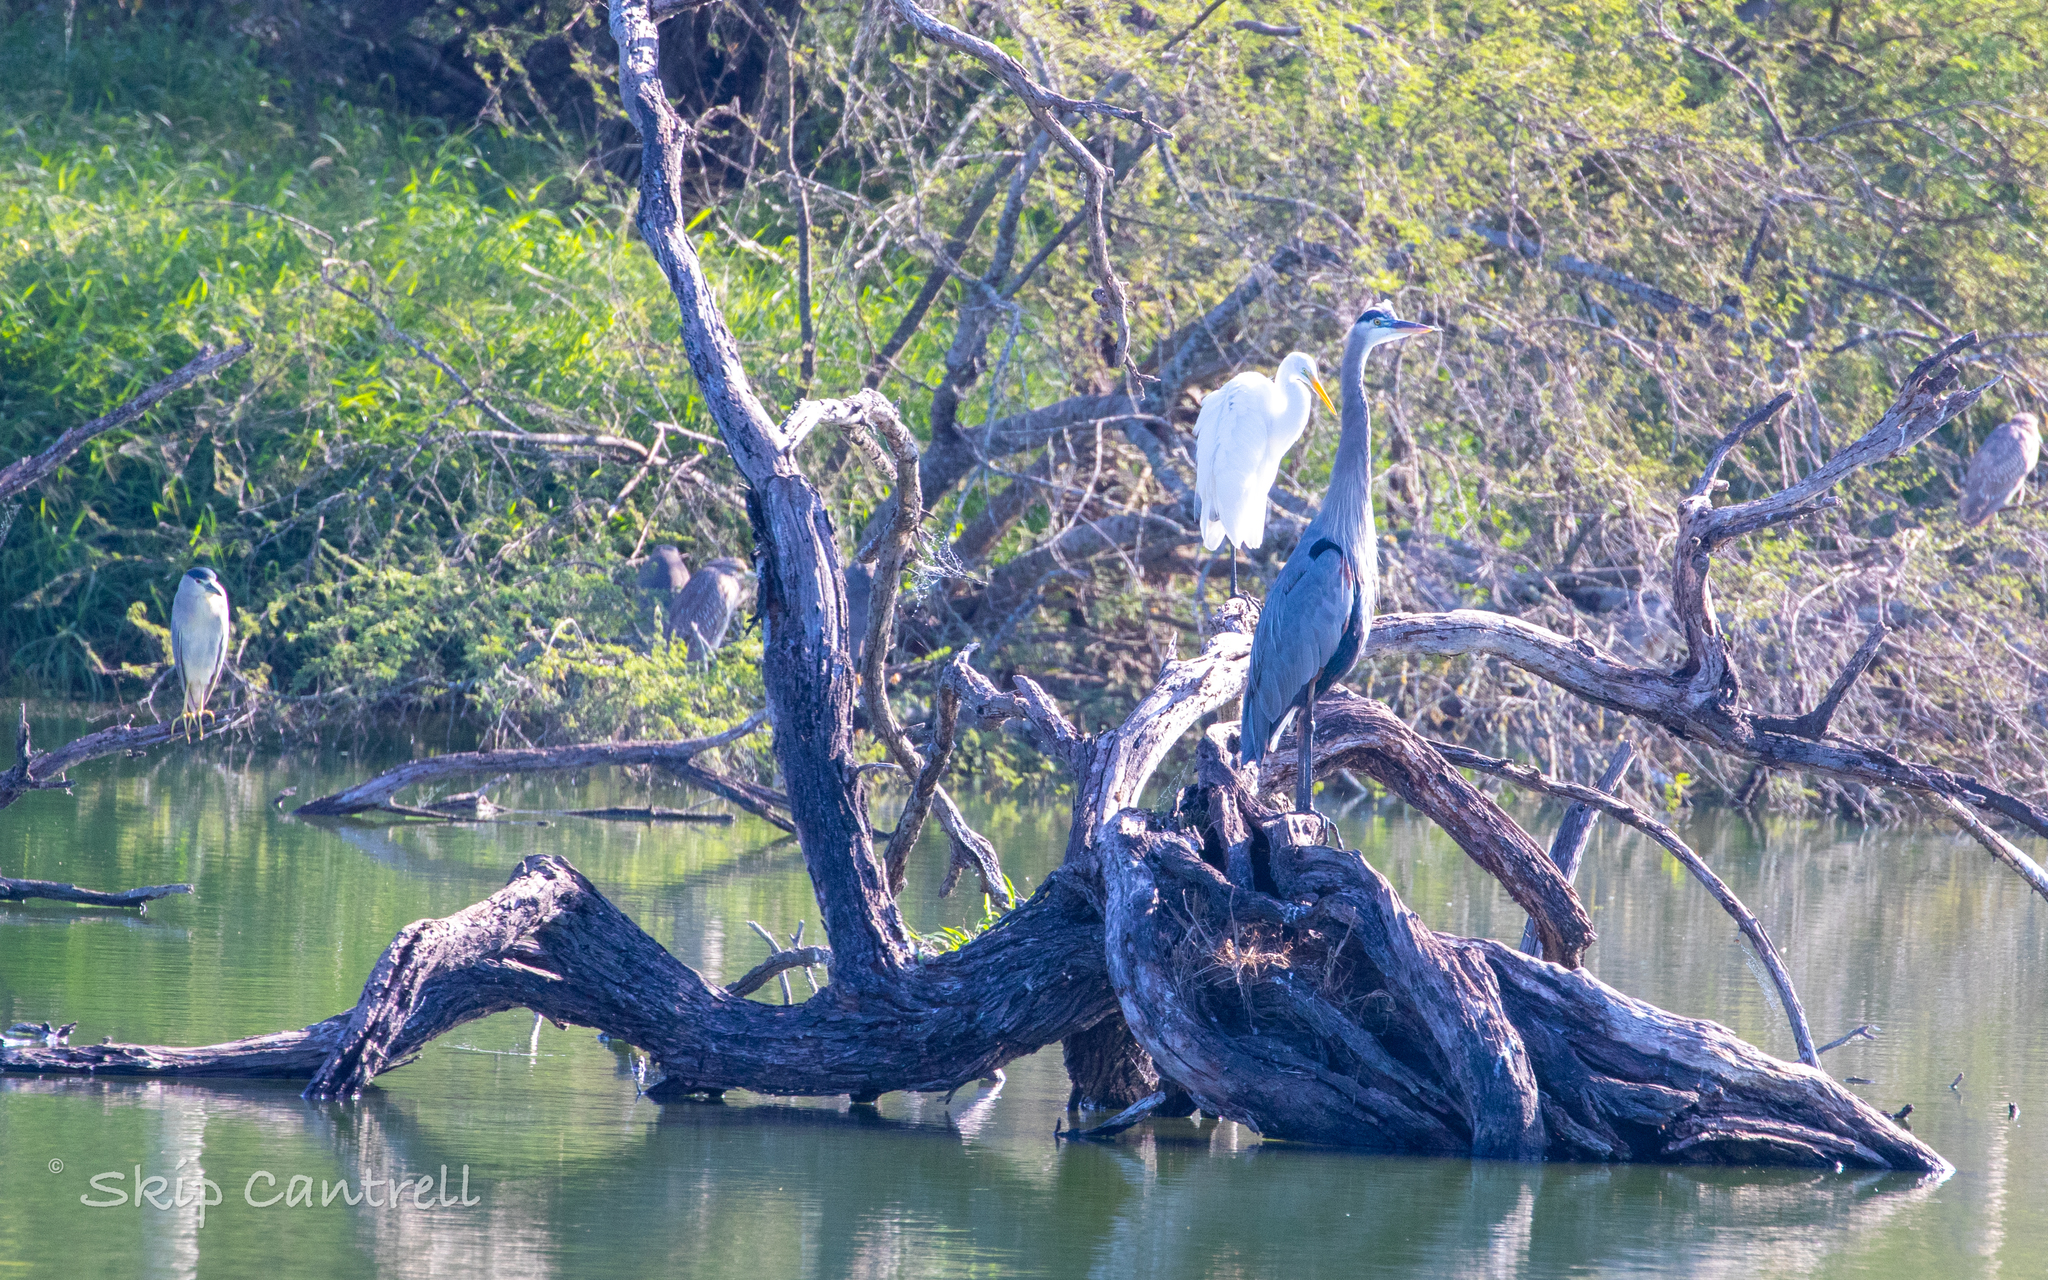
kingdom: Animalia
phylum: Chordata
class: Aves
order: Pelecaniformes
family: Ardeidae
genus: Ardea
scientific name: Ardea herodias
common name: Great blue heron
